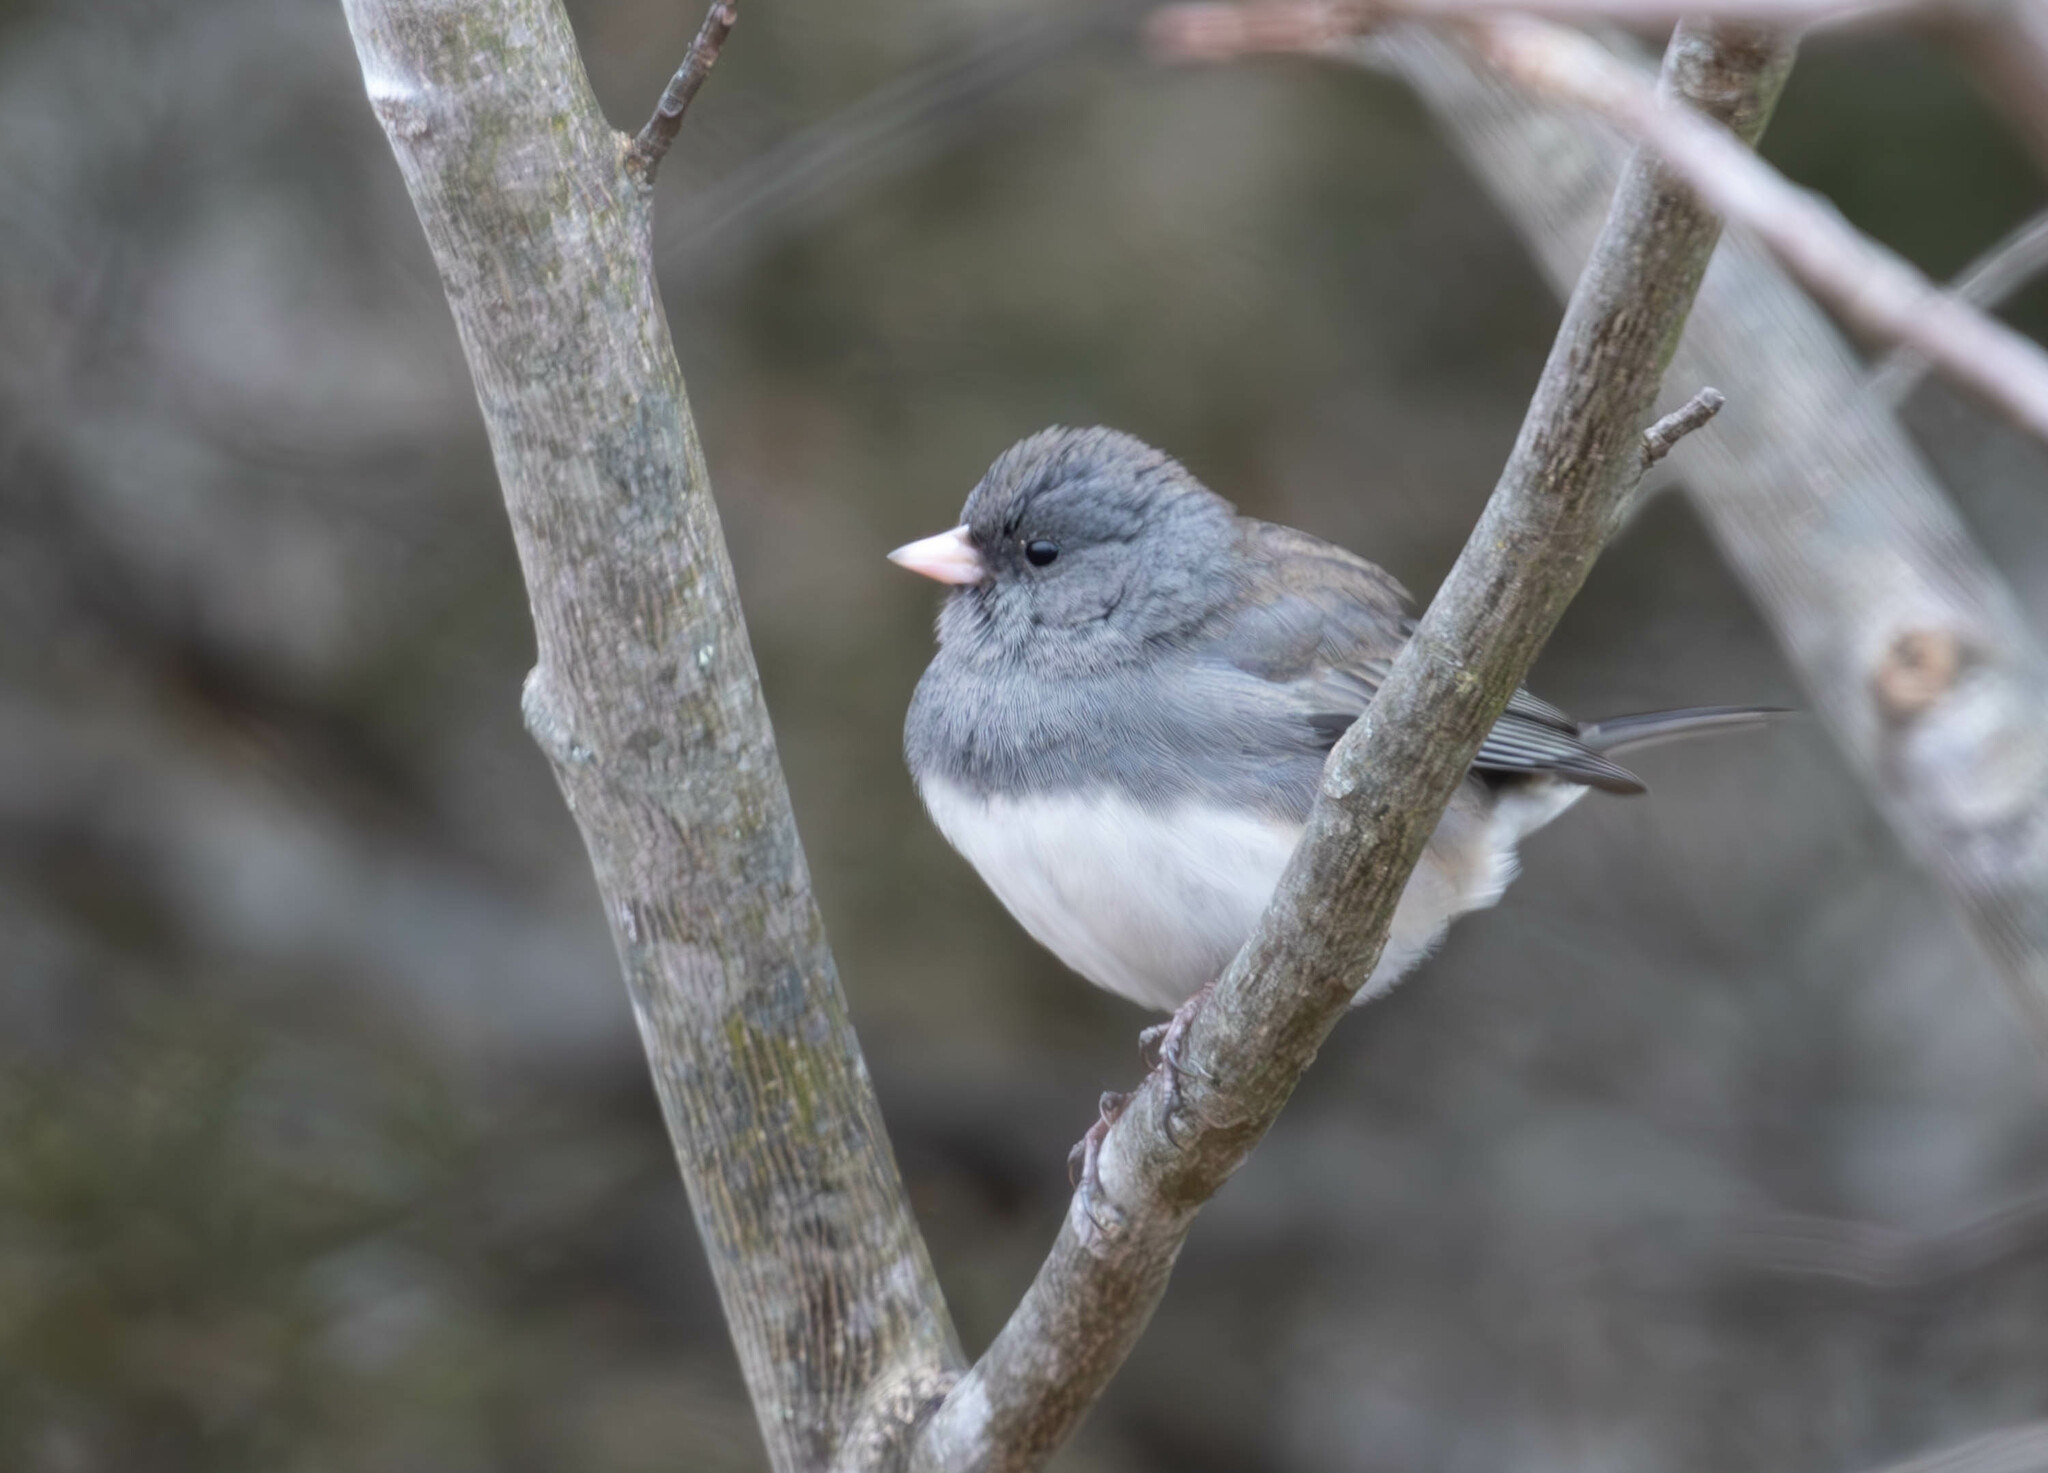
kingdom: Animalia
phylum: Chordata
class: Aves
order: Passeriformes
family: Passerellidae
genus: Junco
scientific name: Junco hyemalis
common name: Dark-eyed junco
